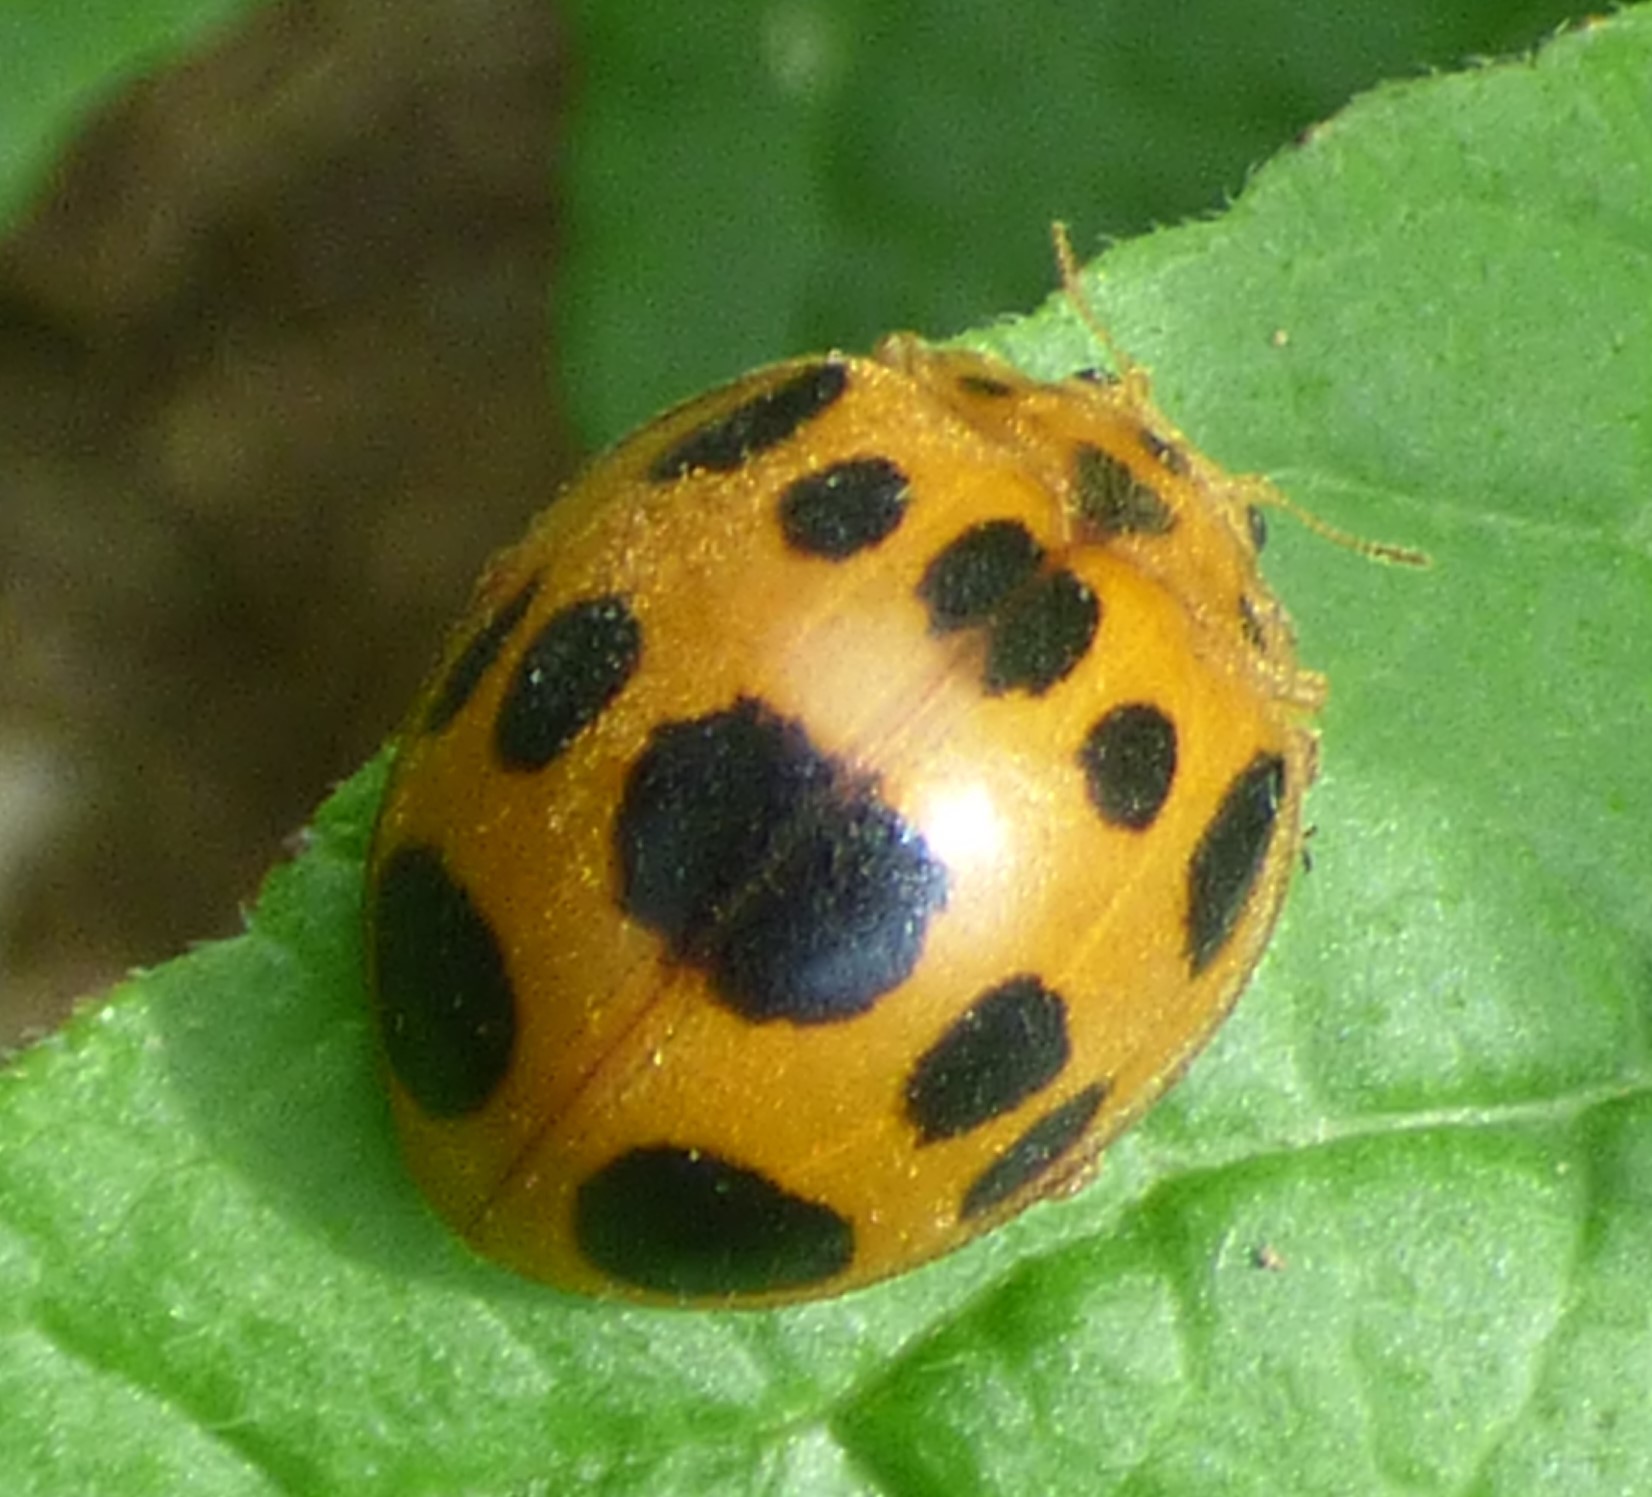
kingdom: Animalia
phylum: Arthropoda
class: Insecta
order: Coleoptera
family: Coccinellidae
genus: Epilachna
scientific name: Epilachna borealis
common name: Squash beetle
